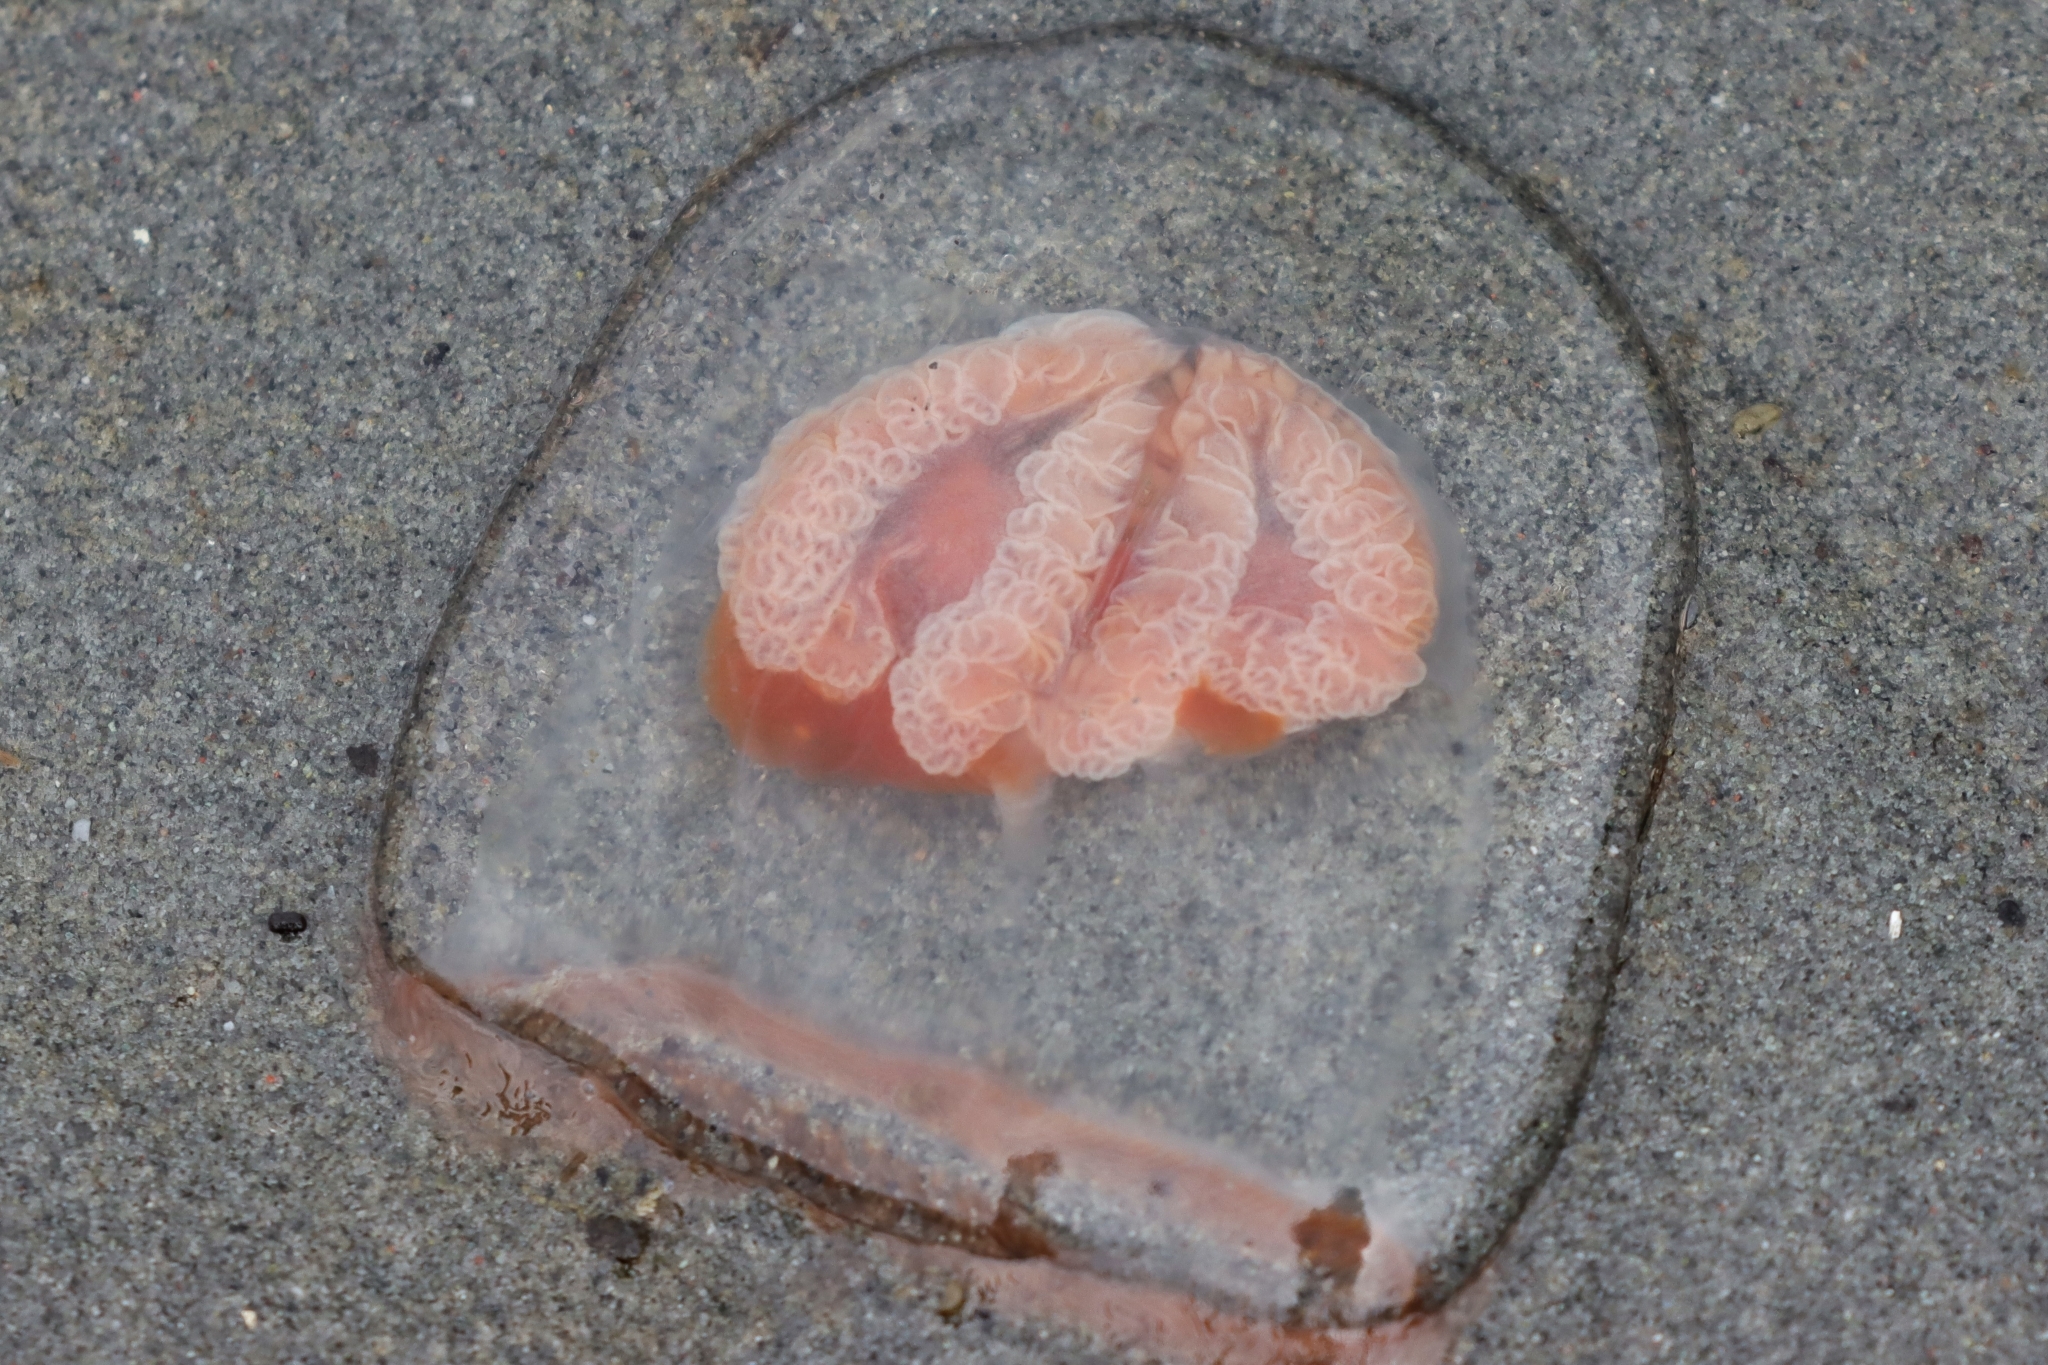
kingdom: Animalia
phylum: Cnidaria
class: Hydrozoa
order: Anthoathecata
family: Pandeidae
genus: Neoturris
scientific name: Neoturris breviconis
